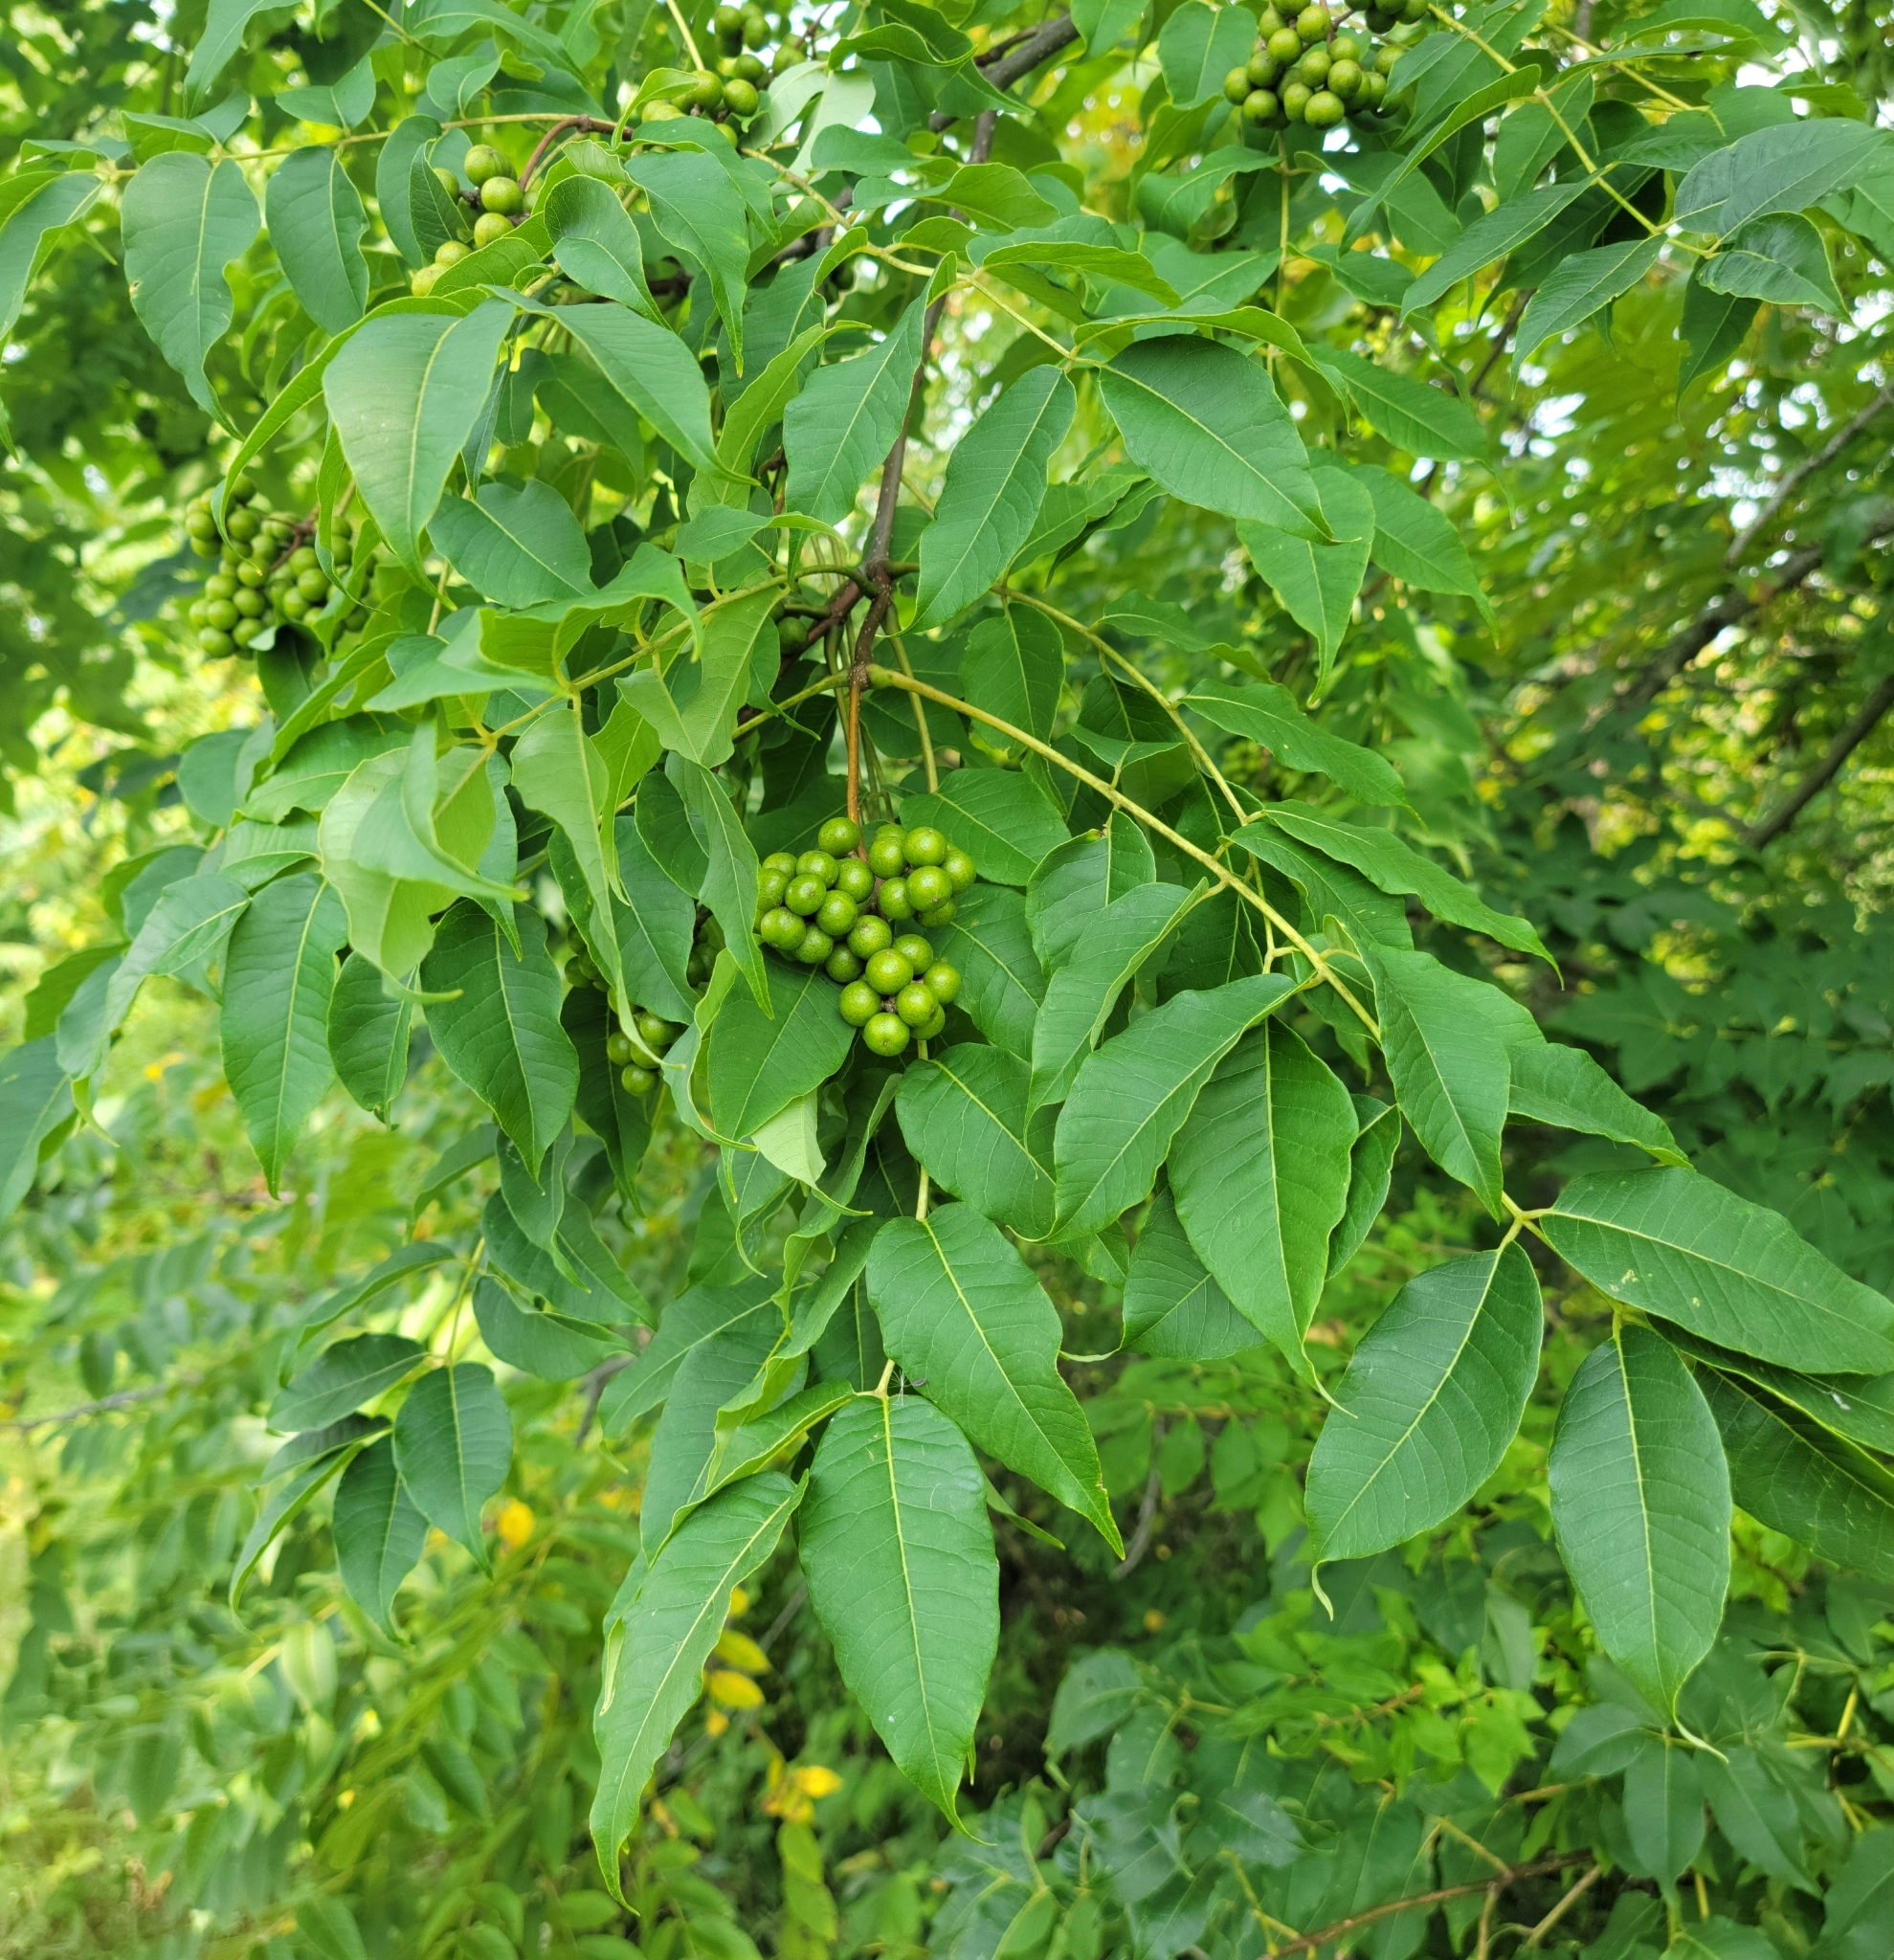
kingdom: Plantae
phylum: Tracheophyta
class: Magnoliopsida
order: Sapindales
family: Rutaceae
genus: Phellodendron
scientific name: Phellodendron amurense
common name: Amur corktree
